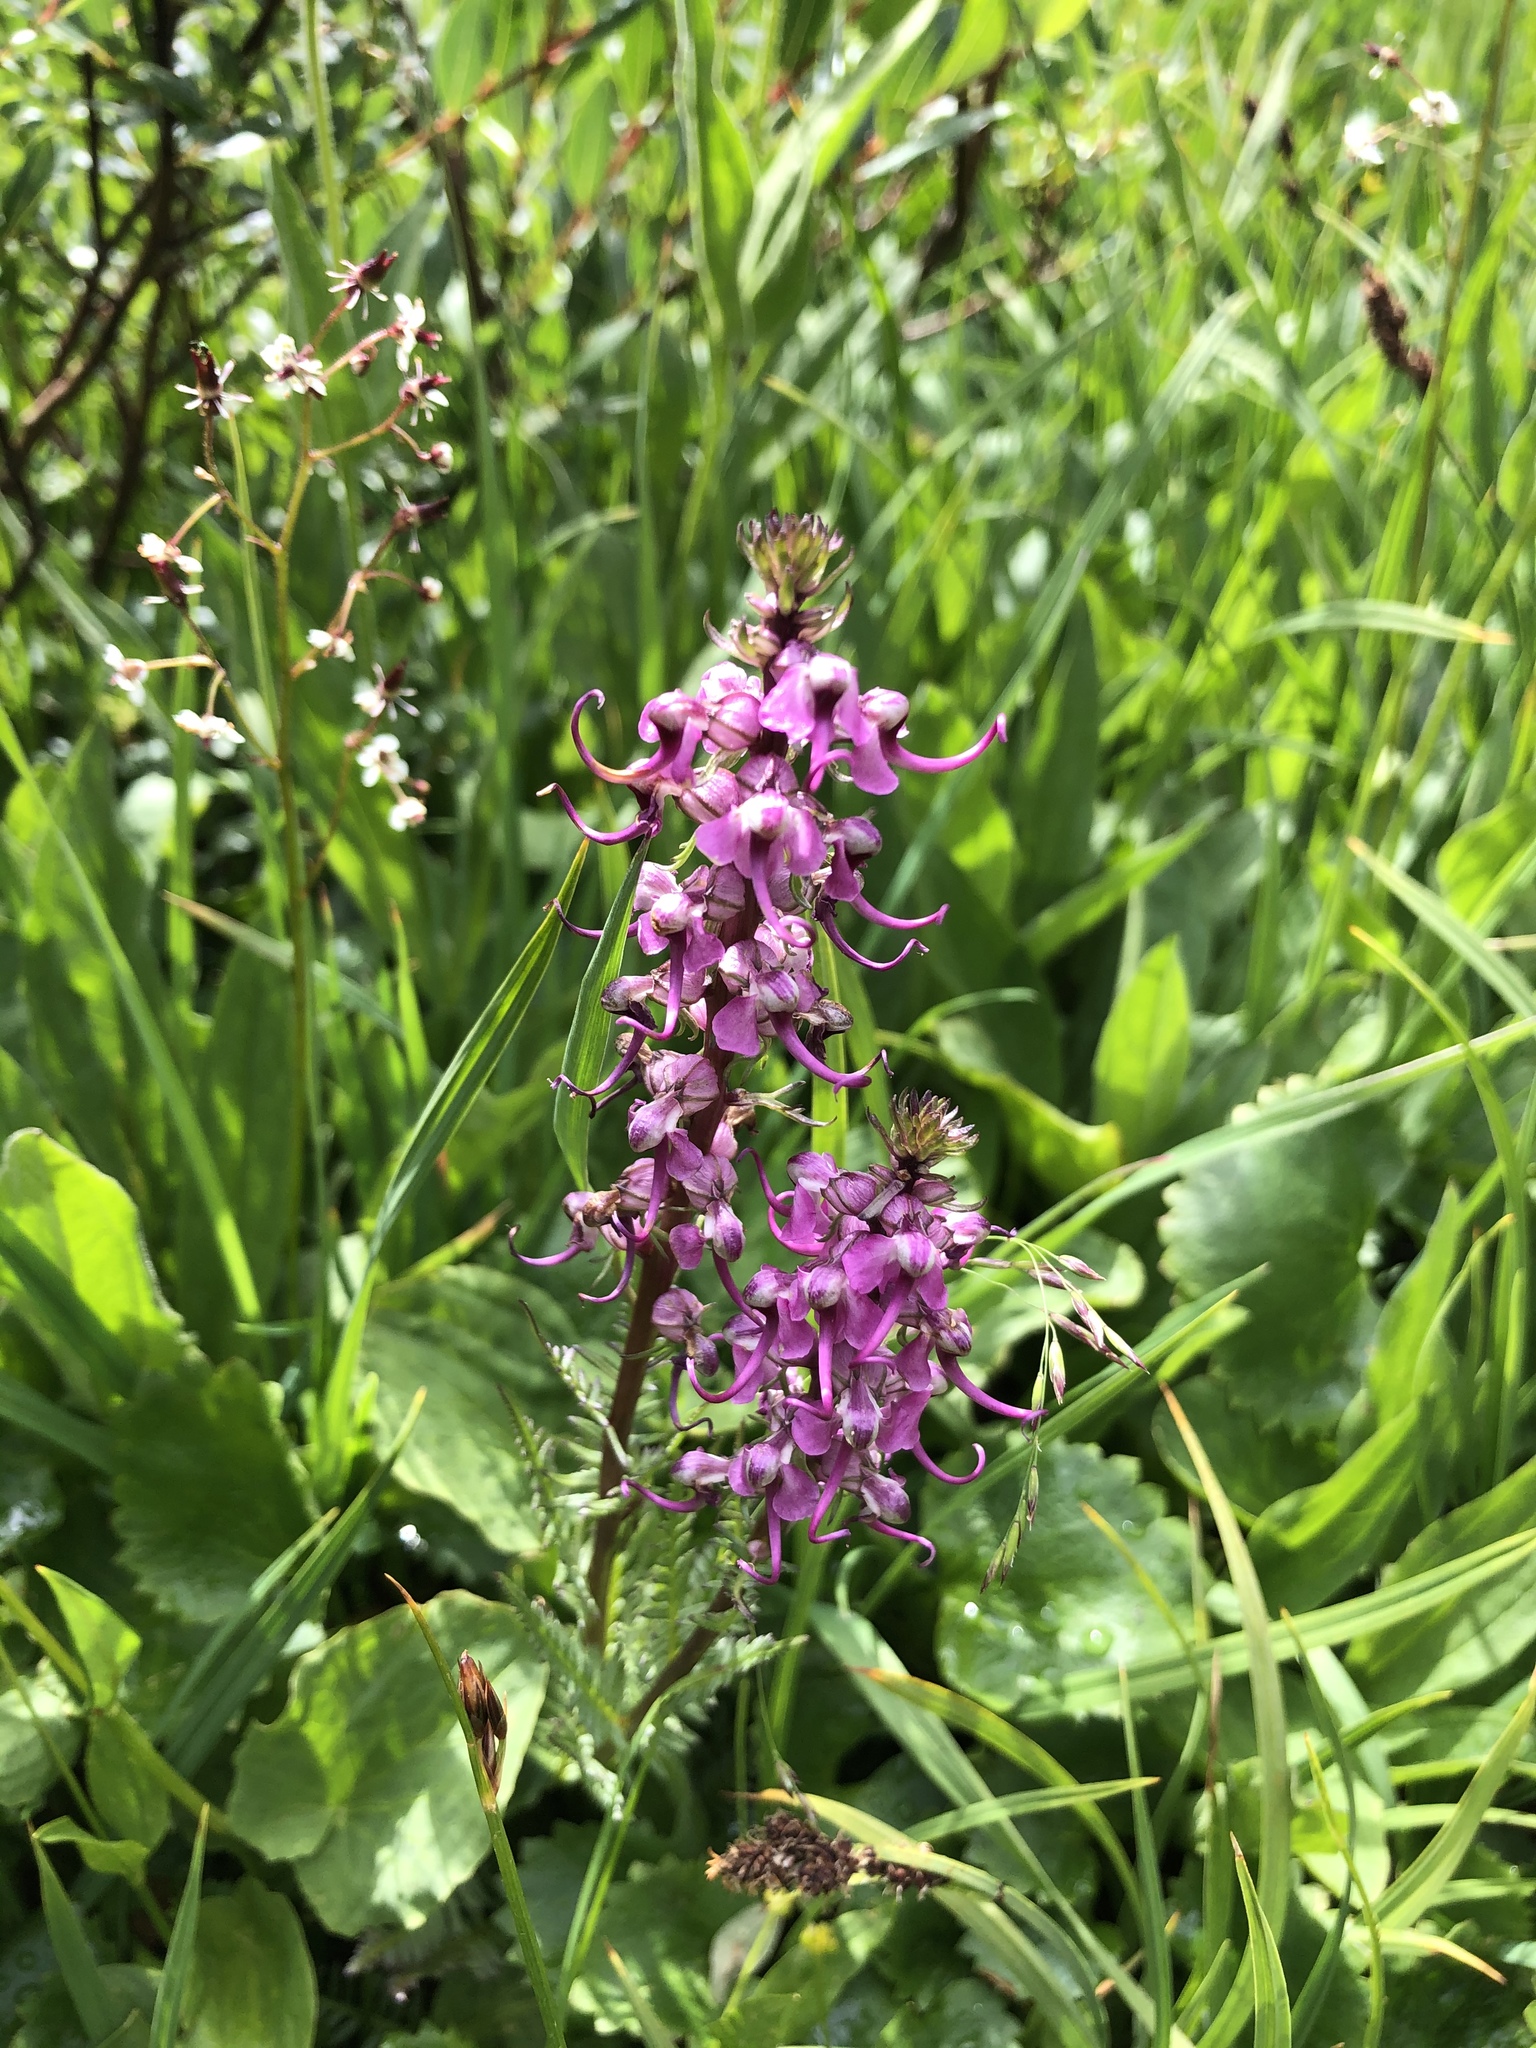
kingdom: Plantae
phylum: Tracheophyta
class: Magnoliopsida
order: Lamiales
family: Orobanchaceae
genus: Pedicularis
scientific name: Pedicularis groenlandica
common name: Elephant's-head
